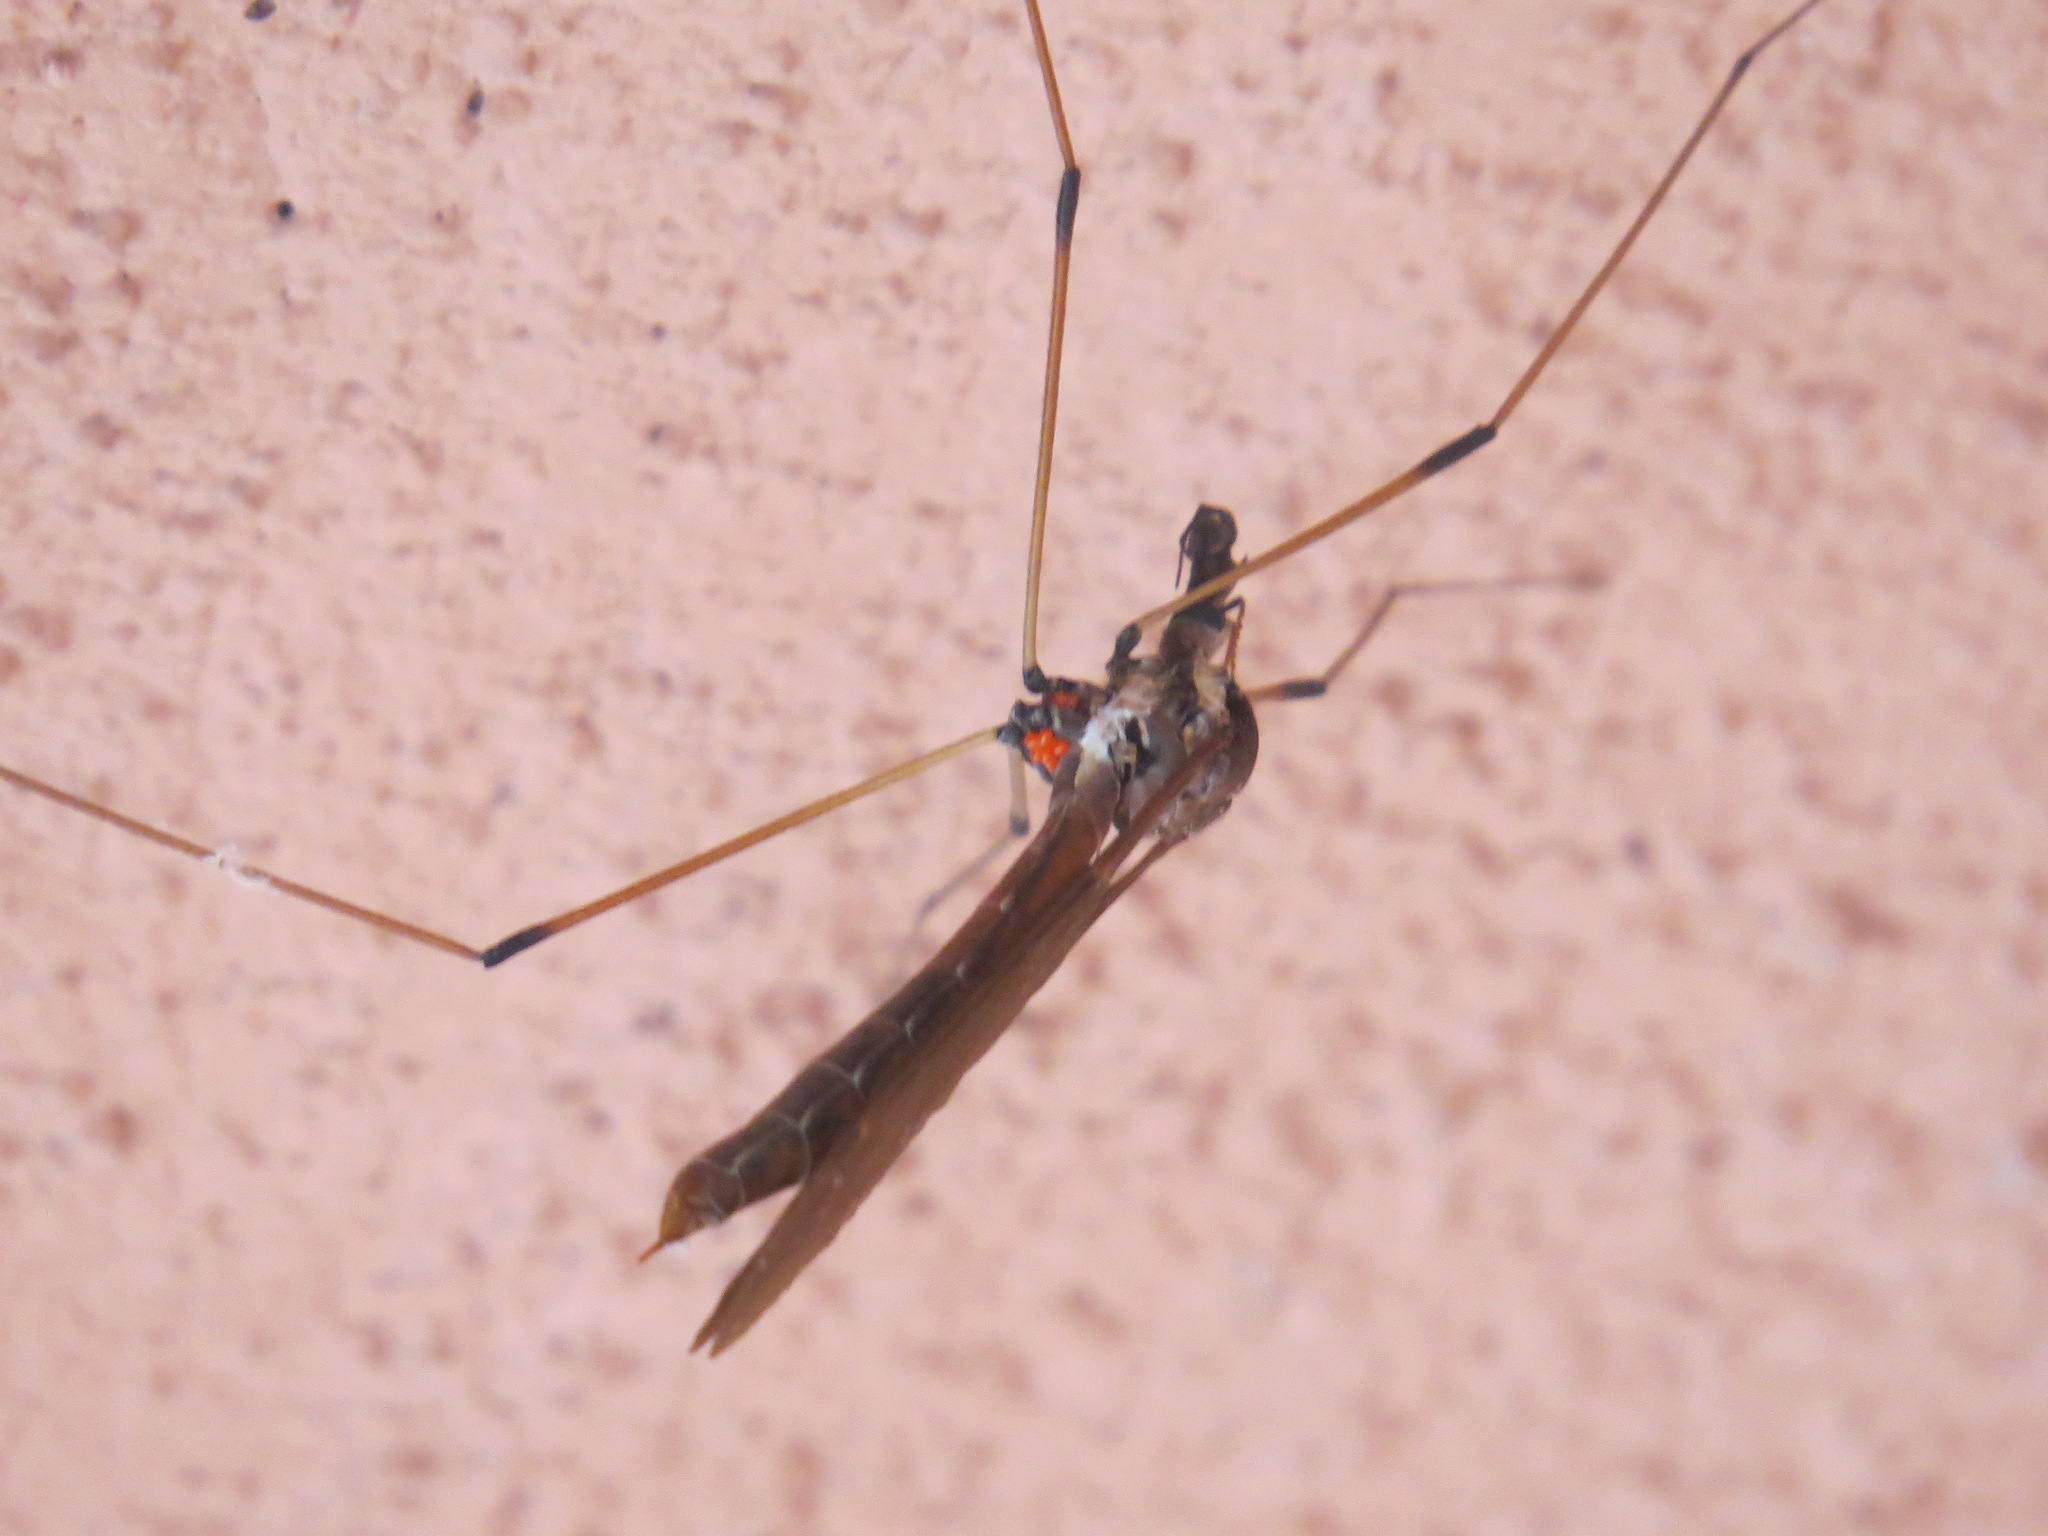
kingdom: Animalia
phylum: Arthropoda
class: Insecta
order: Diptera
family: Tipulidae
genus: Holorusia
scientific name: Holorusia hespera
